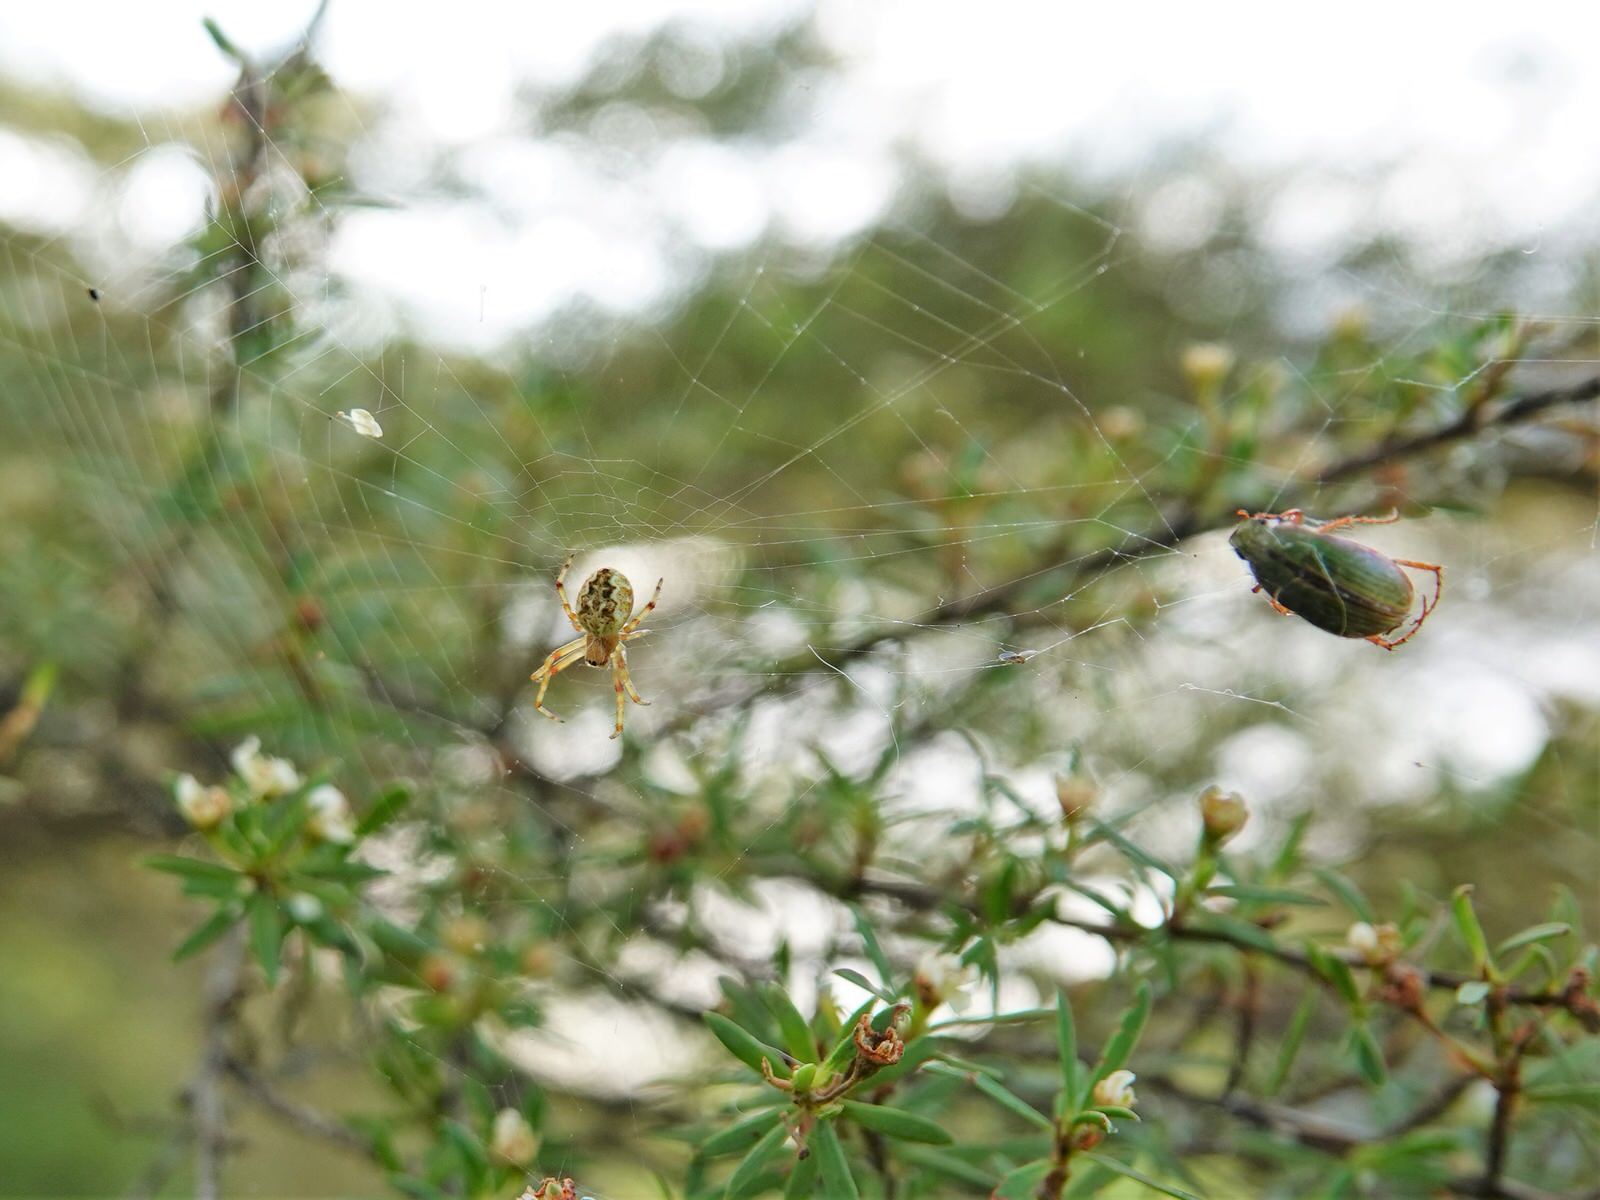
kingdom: Animalia
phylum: Arthropoda
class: Arachnida
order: Araneae
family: Araneidae
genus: Salsa
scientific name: Salsa fuliginata
